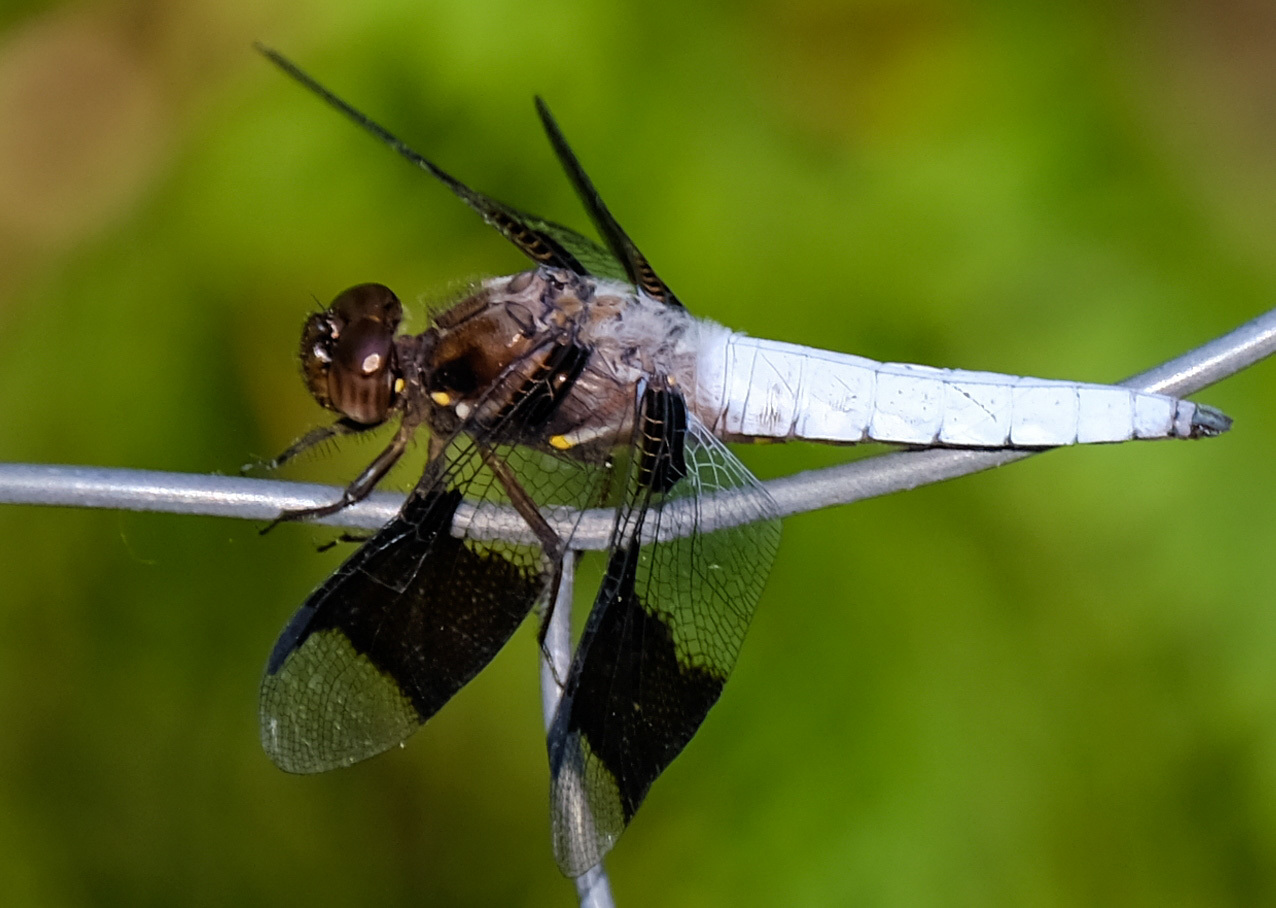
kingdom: Animalia
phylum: Arthropoda
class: Insecta
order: Odonata
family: Libellulidae
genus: Plathemis
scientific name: Plathemis lydia
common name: Common whitetail
